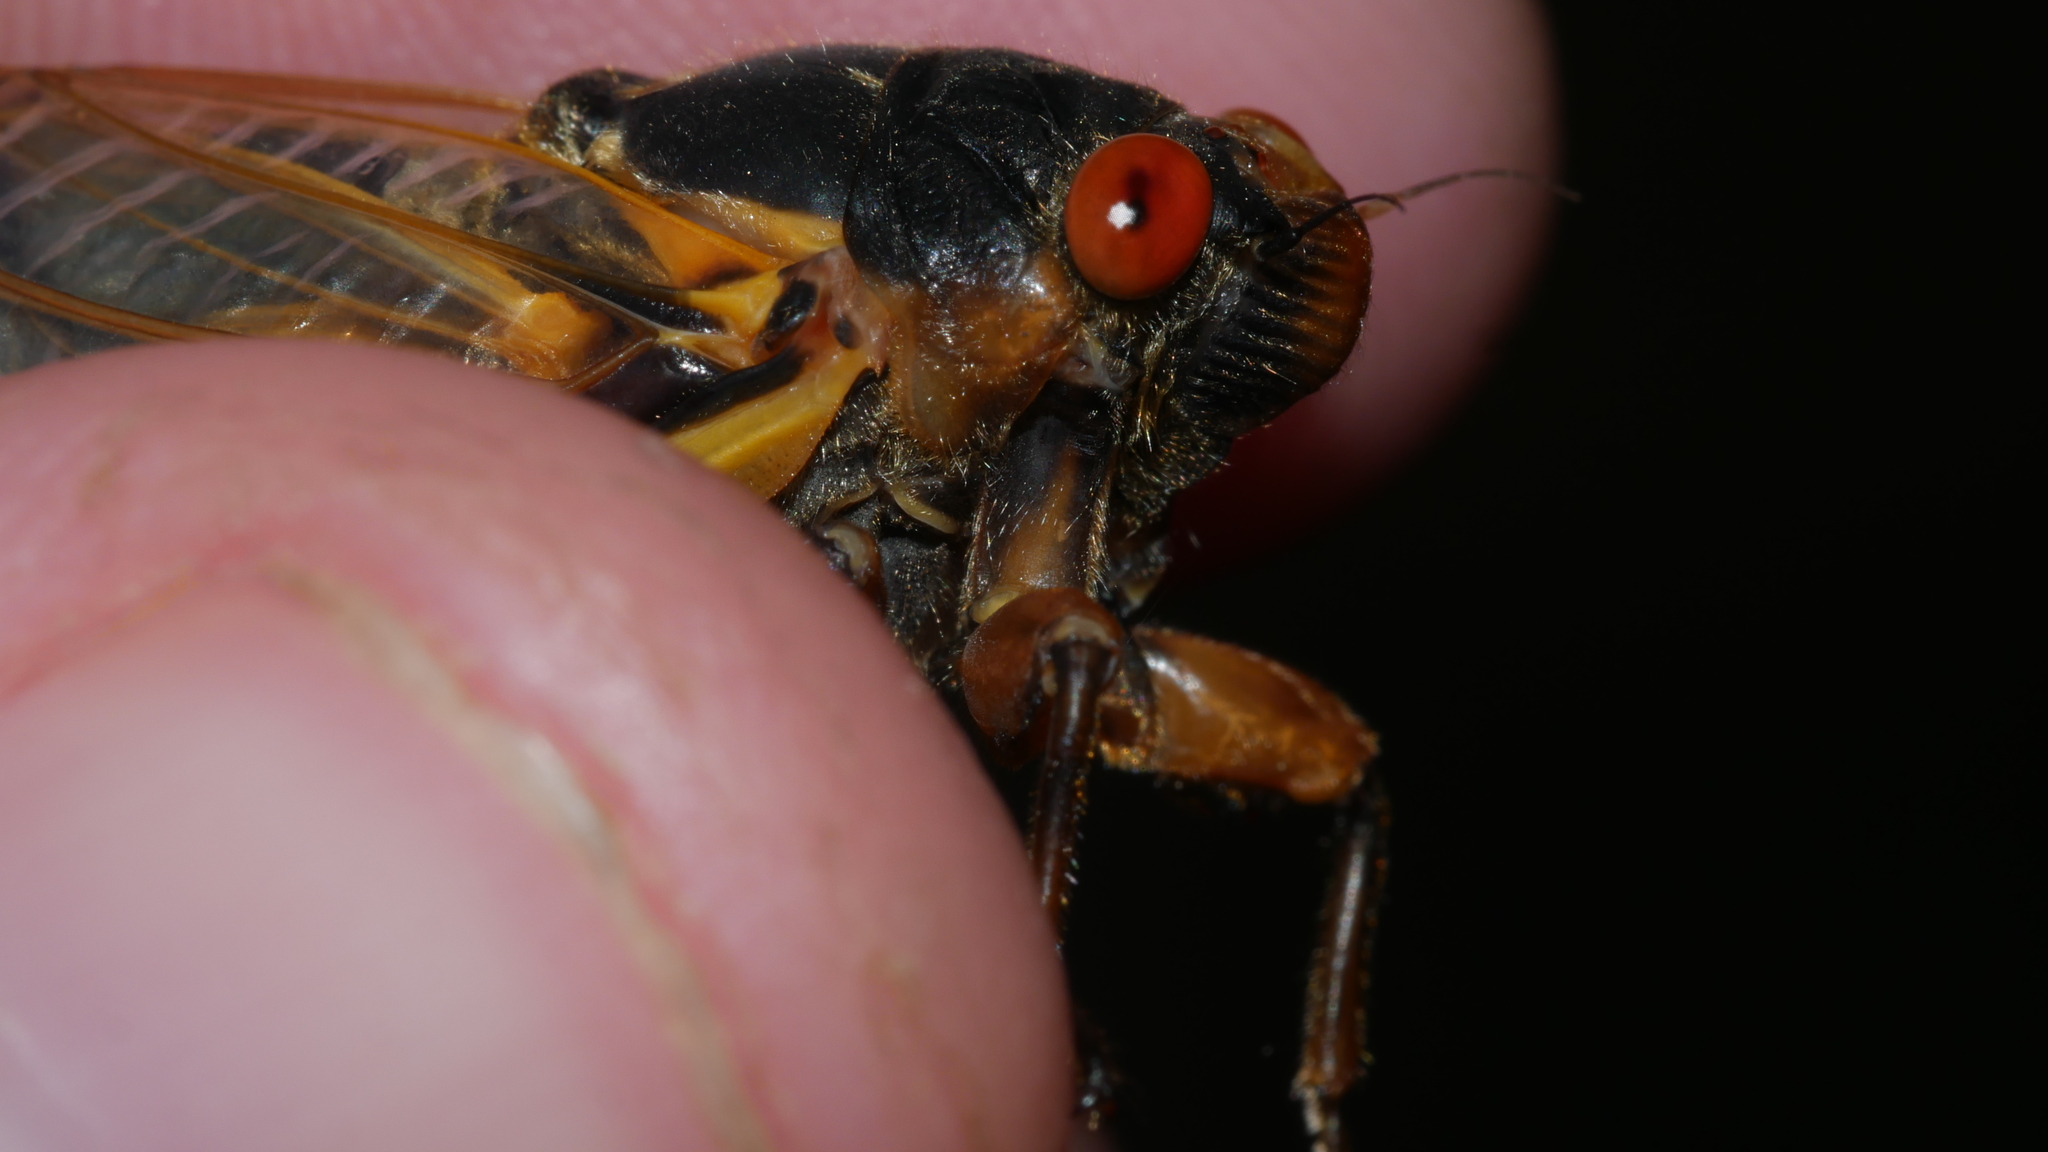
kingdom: Animalia
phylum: Arthropoda
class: Insecta
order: Hemiptera
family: Cicadidae
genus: Magicicada
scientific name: Magicicada septendecim
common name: Periodical cicada
